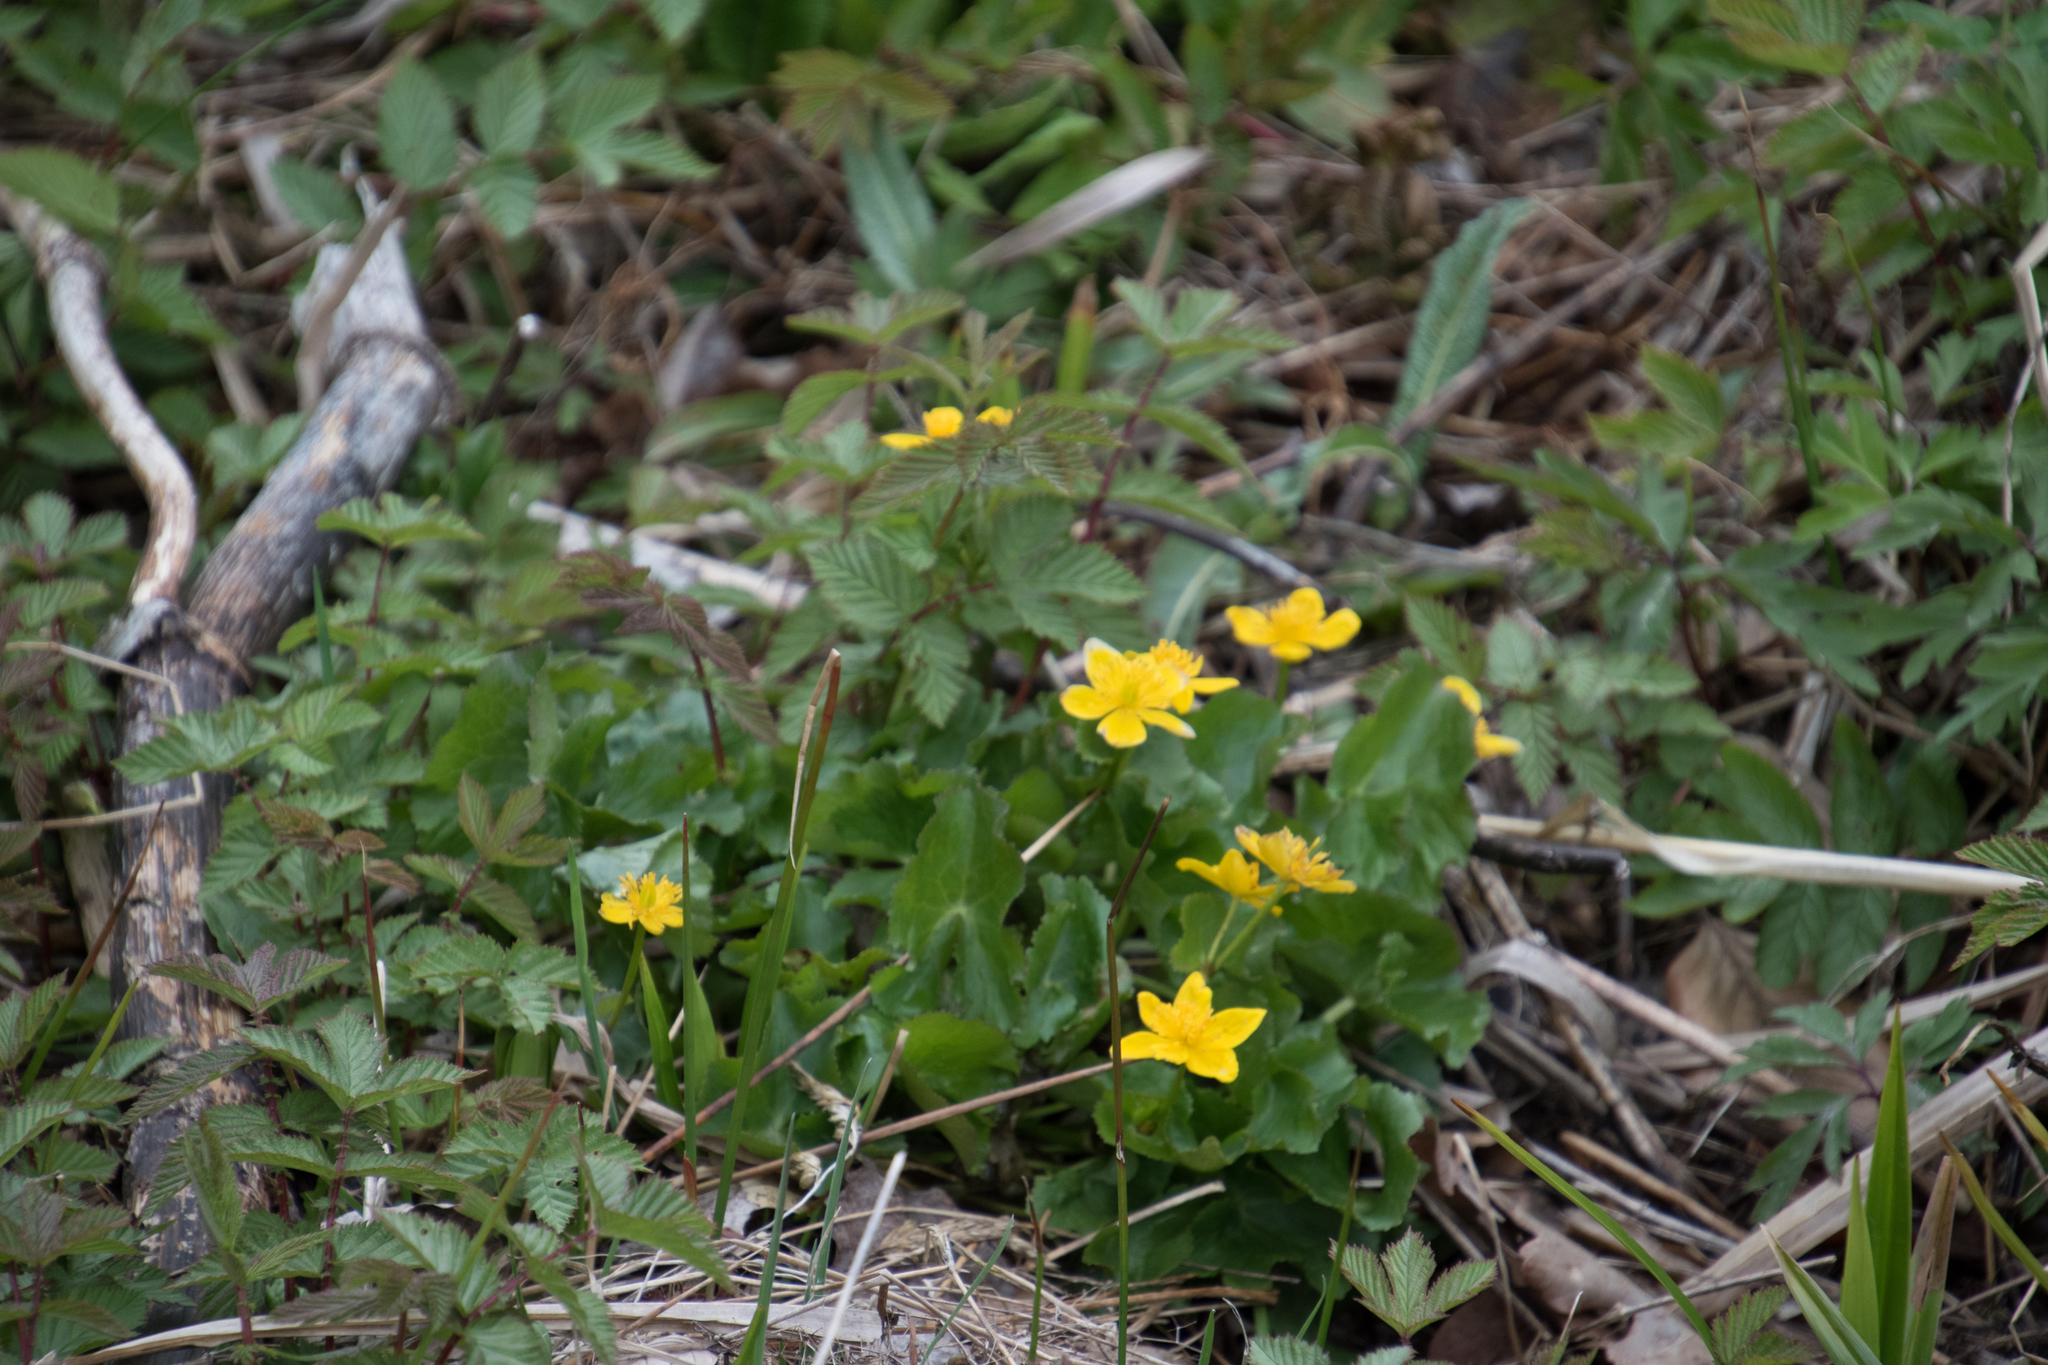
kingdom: Plantae
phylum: Tracheophyta
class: Magnoliopsida
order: Ranunculales
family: Ranunculaceae
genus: Caltha
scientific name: Caltha palustris
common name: Marsh marigold
